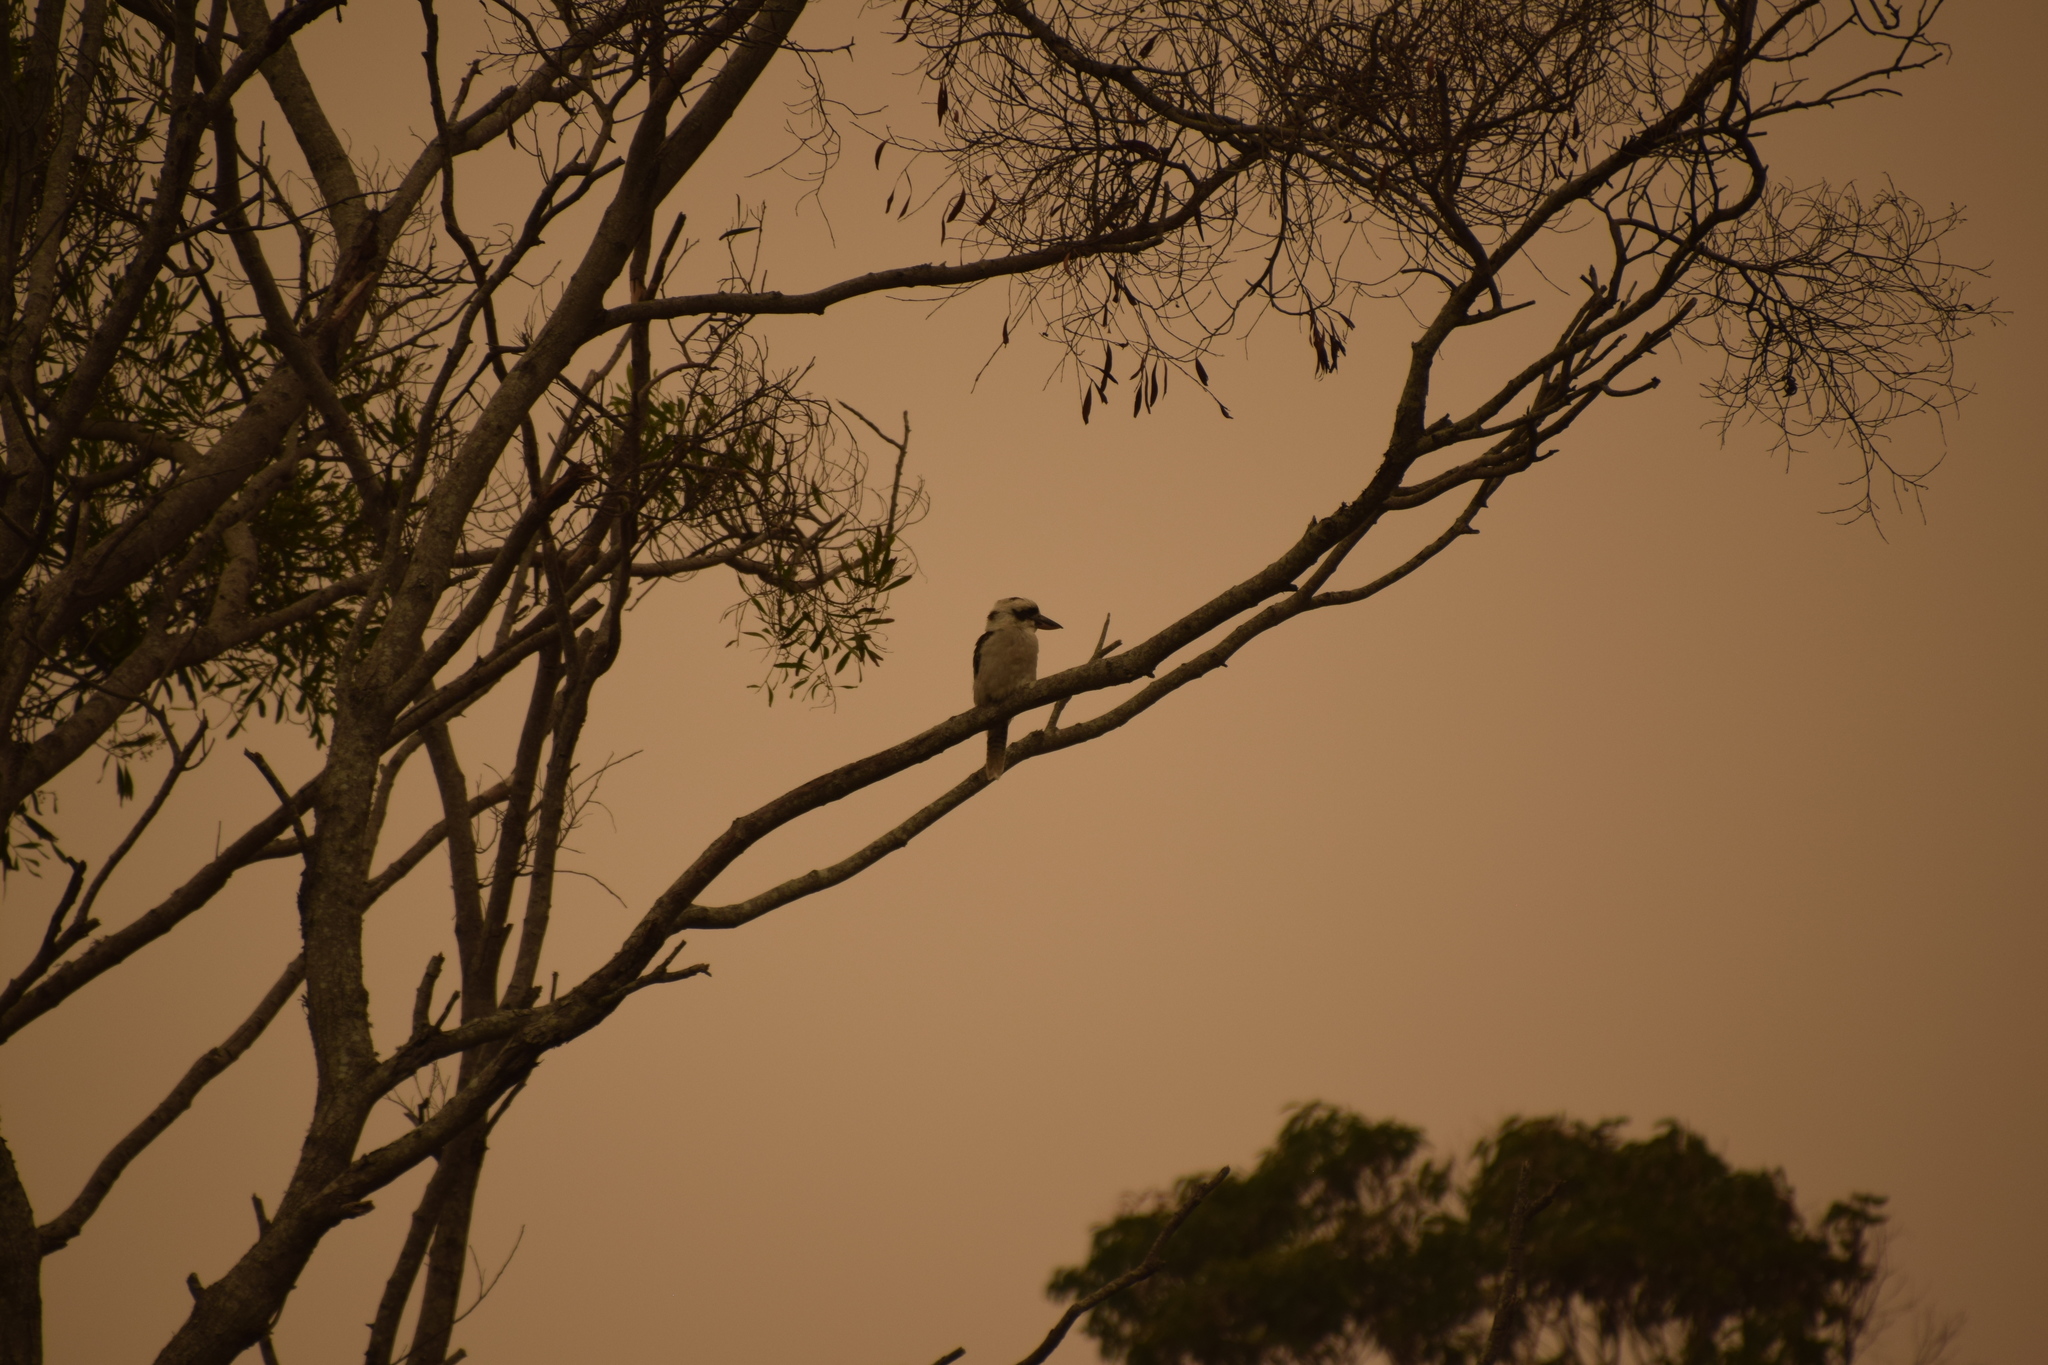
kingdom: Animalia
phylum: Chordata
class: Aves
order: Coraciiformes
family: Alcedinidae
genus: Dacelo
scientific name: Dacelo novaeguineae
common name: Laughing kookaburra
